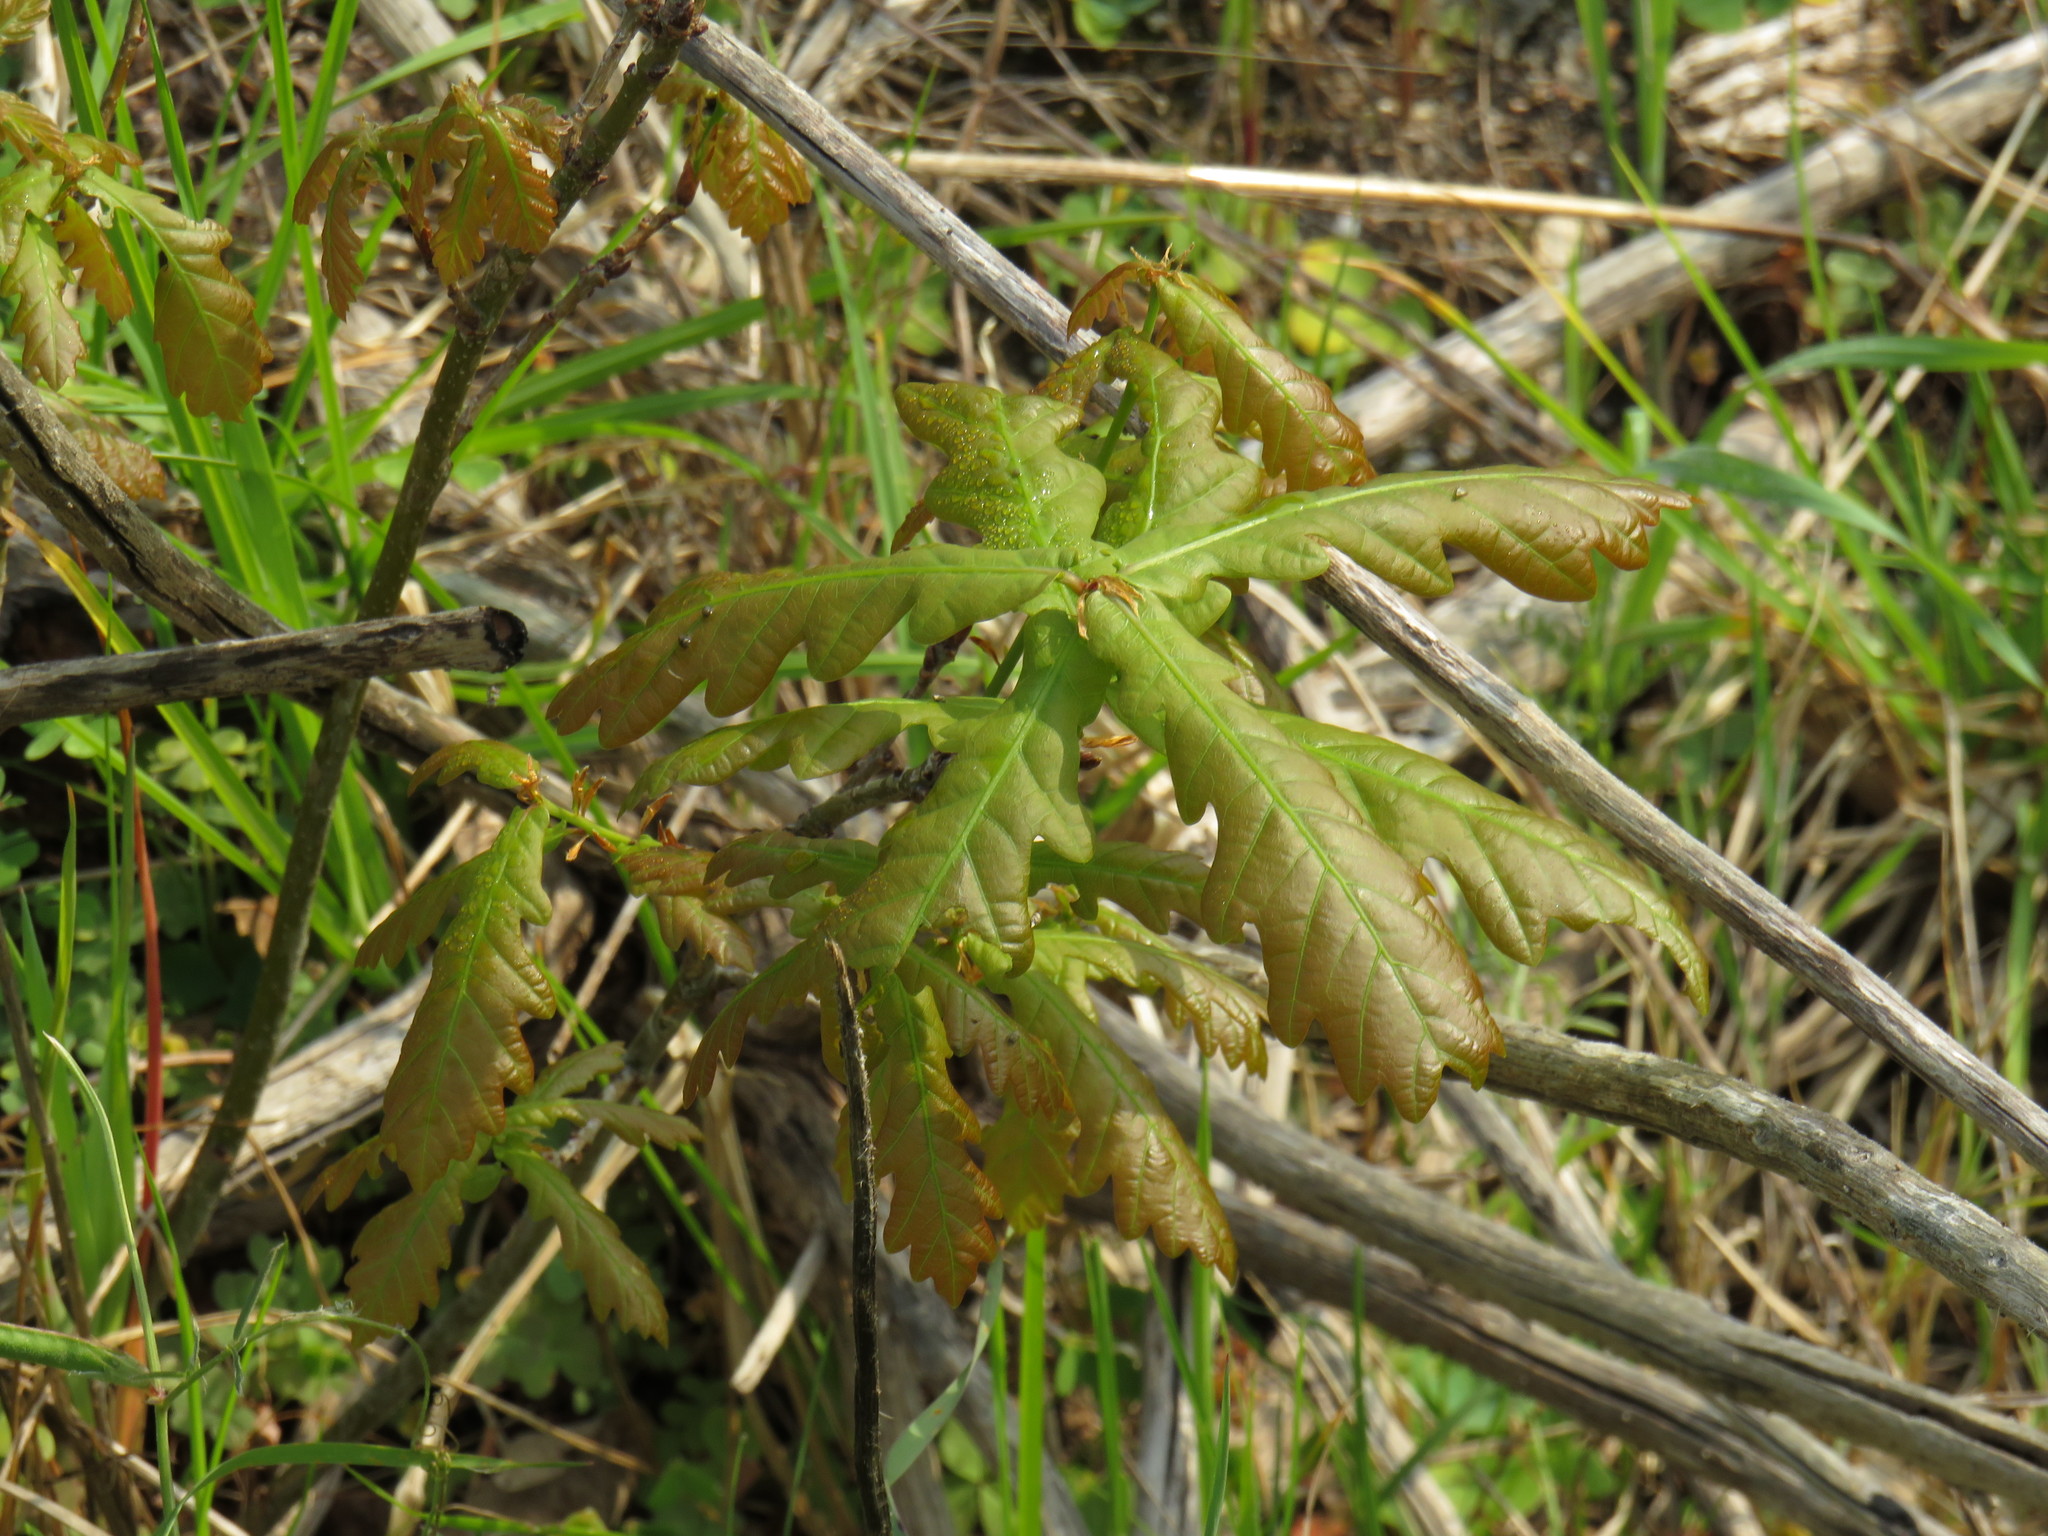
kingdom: Plantae
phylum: Tracheophyta
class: Magnoliopsida
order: Fagales
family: Fagaceae
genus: Quercus
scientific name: Quercus robur
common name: Pedunculate oak
